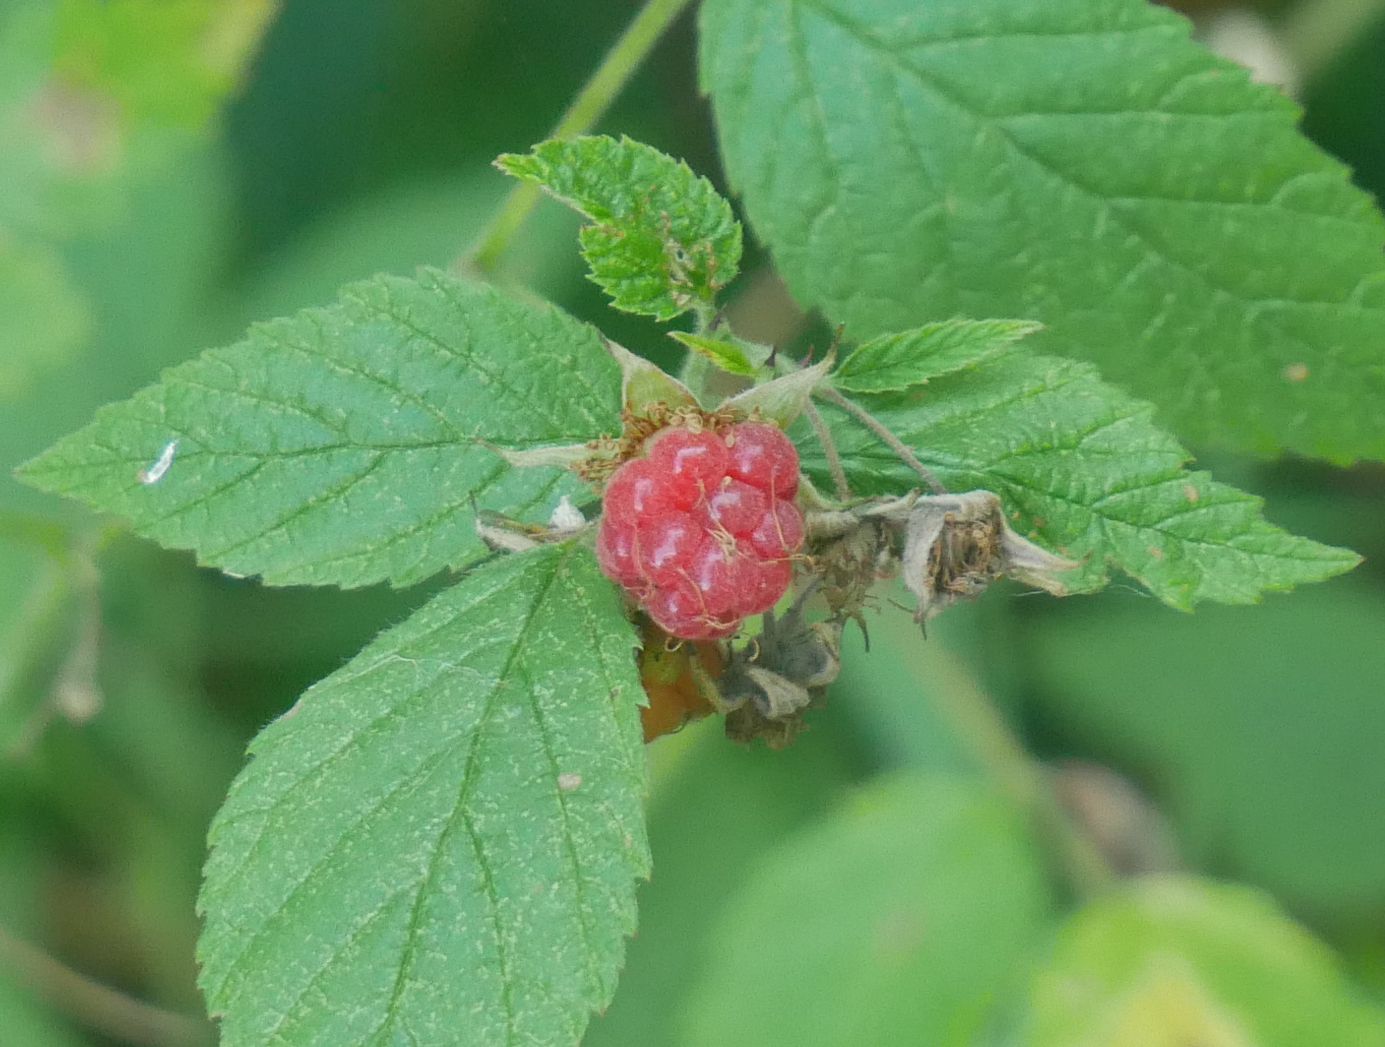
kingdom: Plantae
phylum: Tracheophyta
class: Magnoliopsida
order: Rosales
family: Rosaceae
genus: Rubus
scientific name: Rubus idaeus
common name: Raspberry
